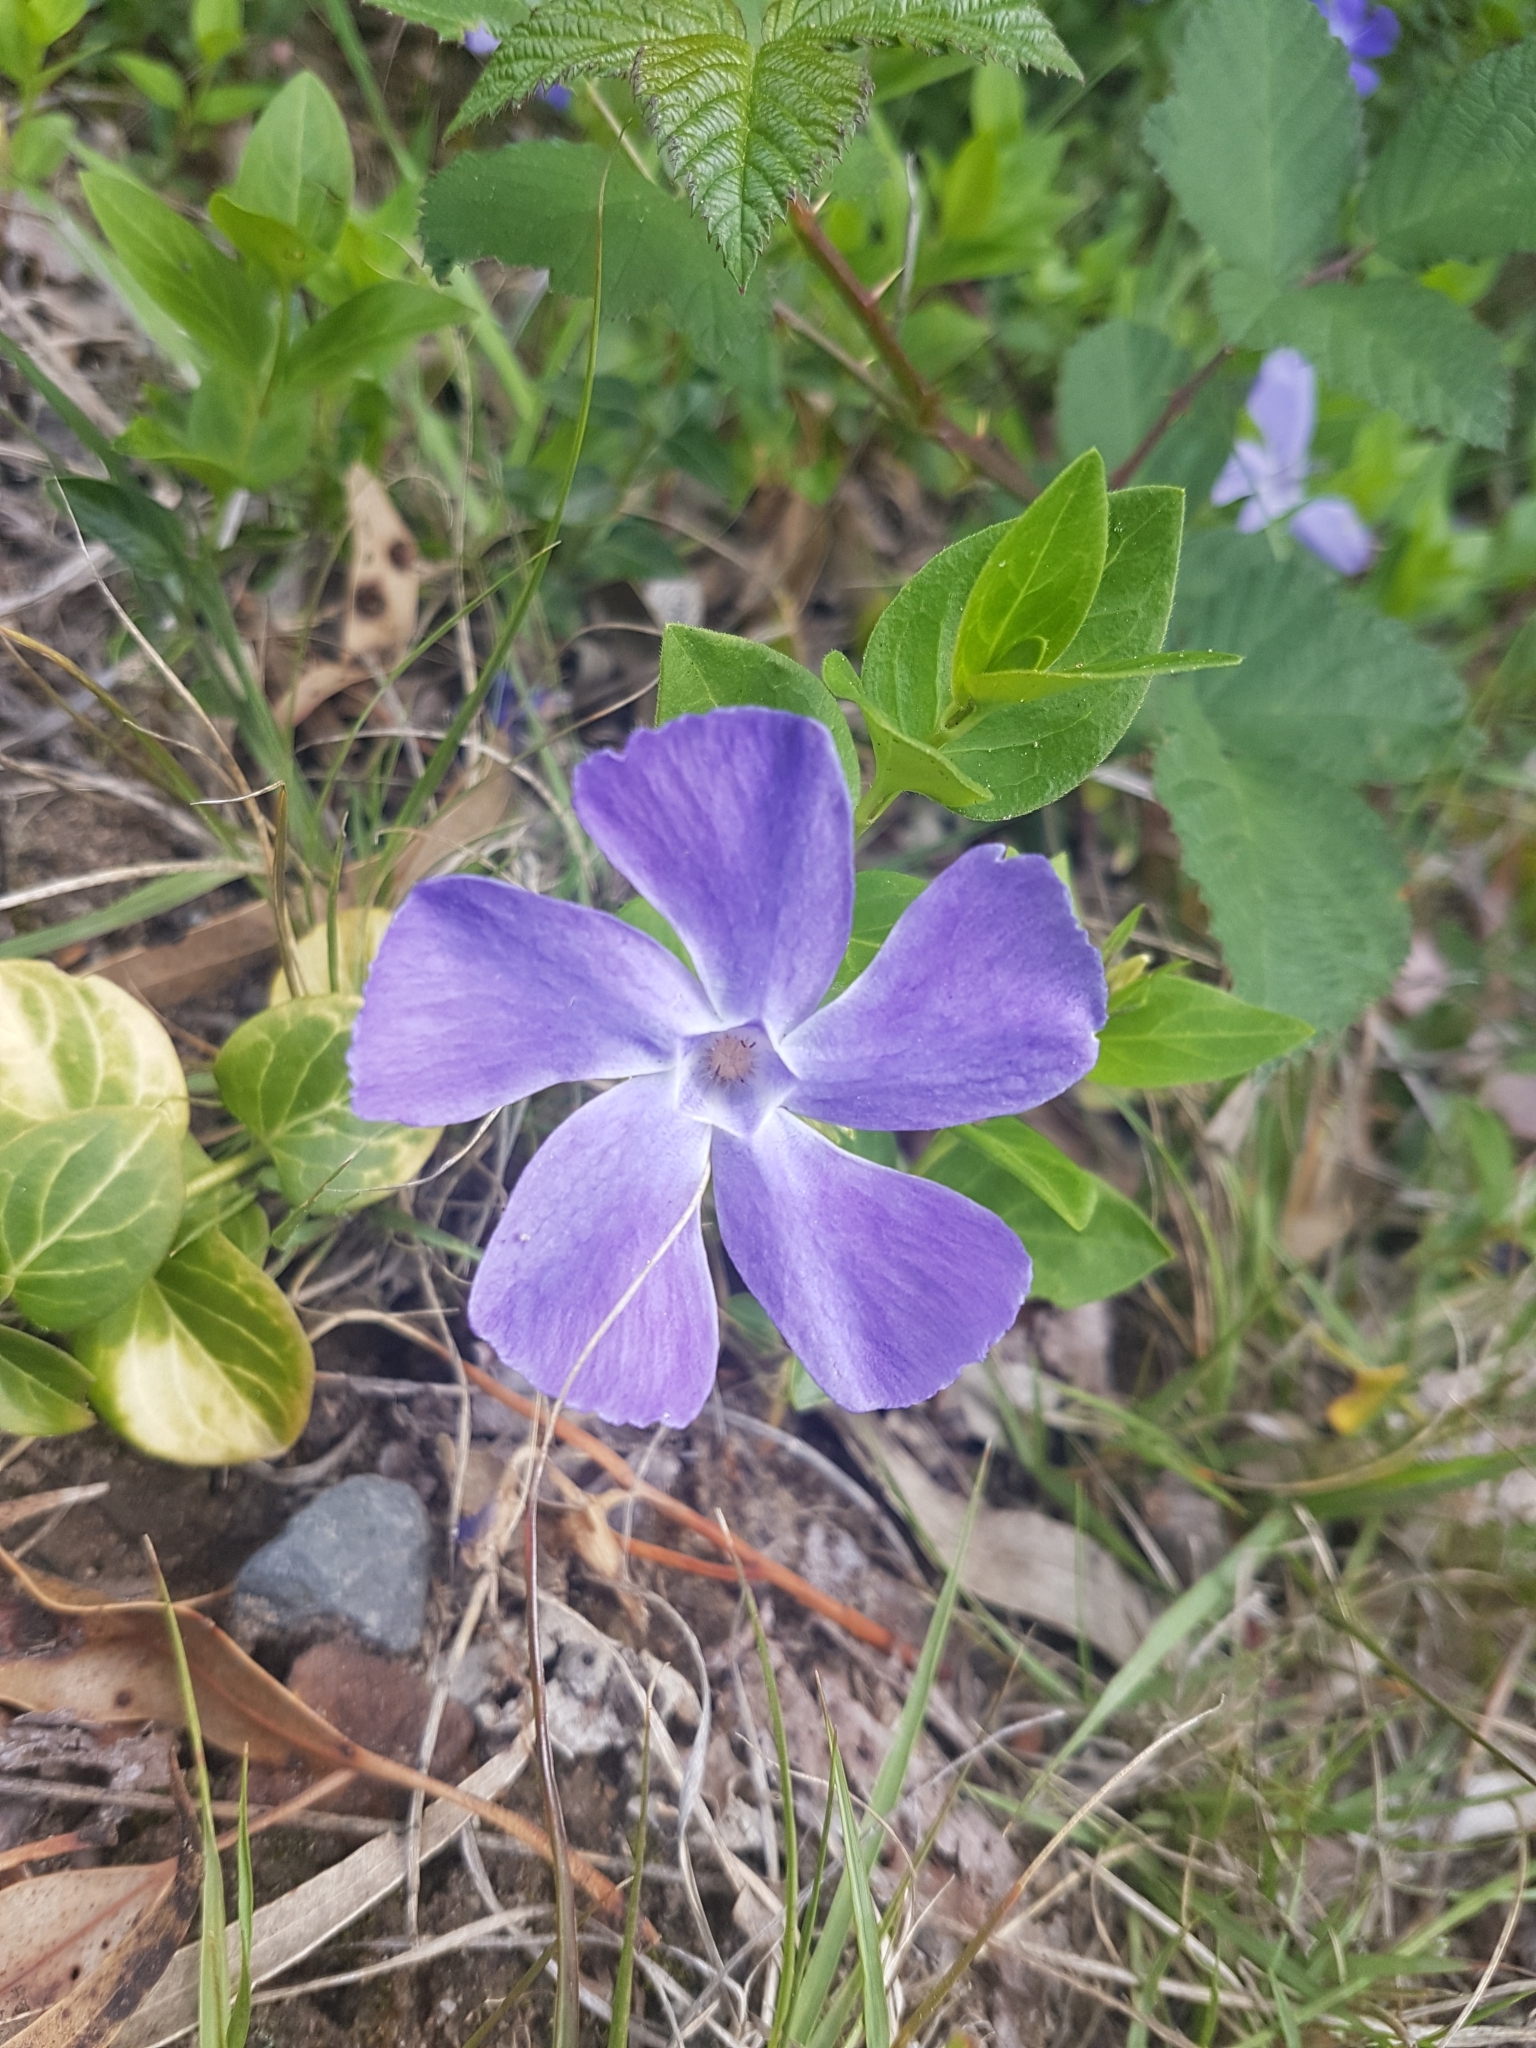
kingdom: Plantae
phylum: Tracheophyta
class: Magnoliopsida
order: Gentianales
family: Apocynaceae
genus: Vinca
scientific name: Vinca major
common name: Greater periwinkle
